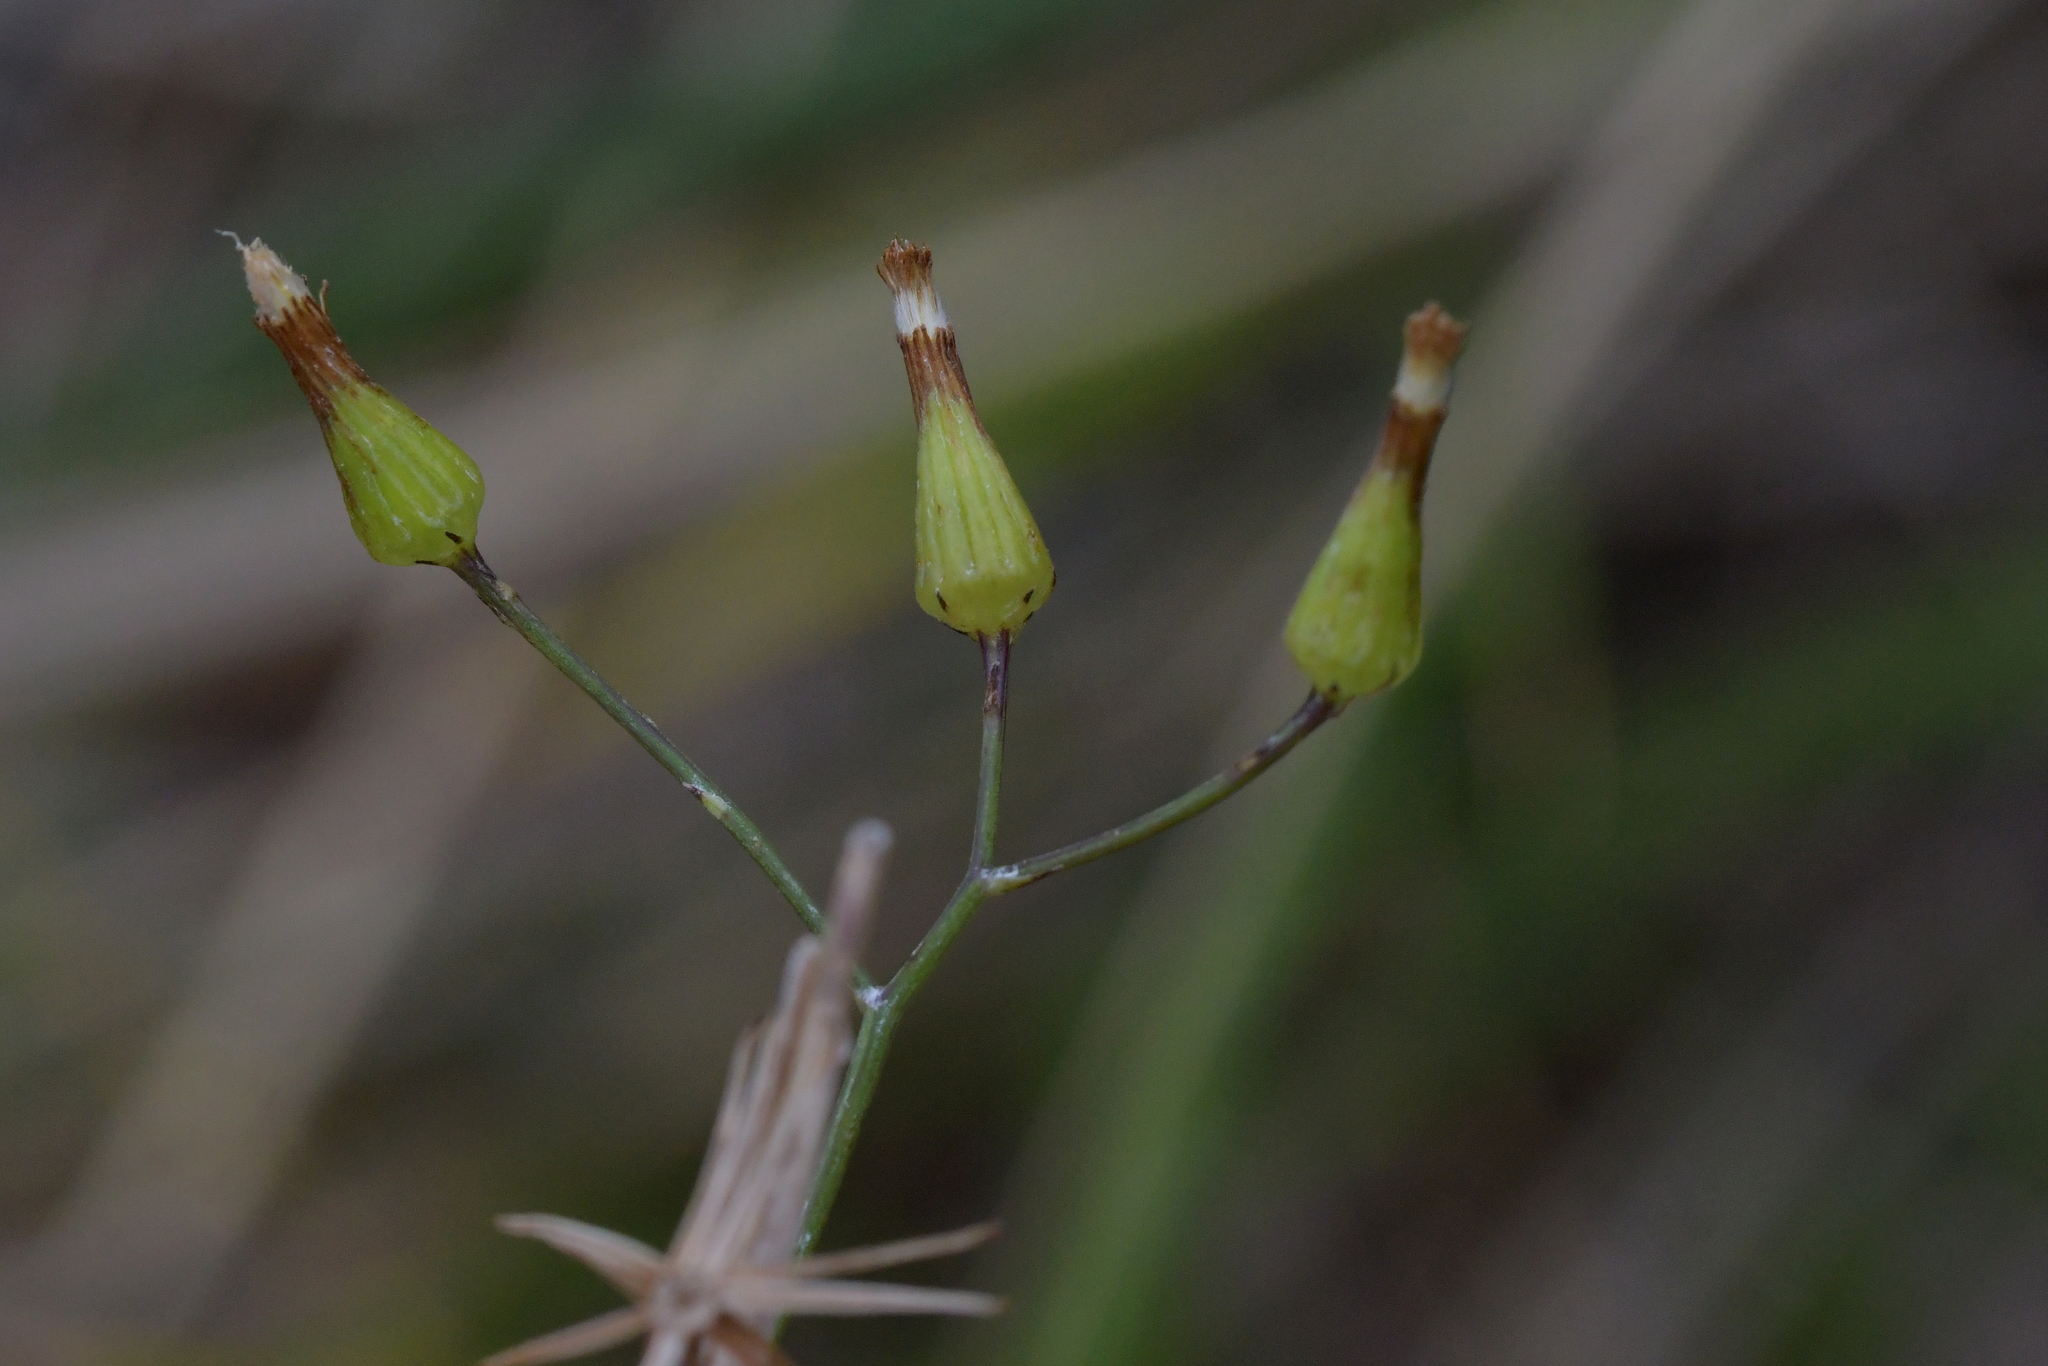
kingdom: Plantae
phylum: Tracheophyta
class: Magnoliopsida
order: Asterales
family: Asteraceae
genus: Senecio
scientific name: Senecio quadridentatus
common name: Cotton fireweed
